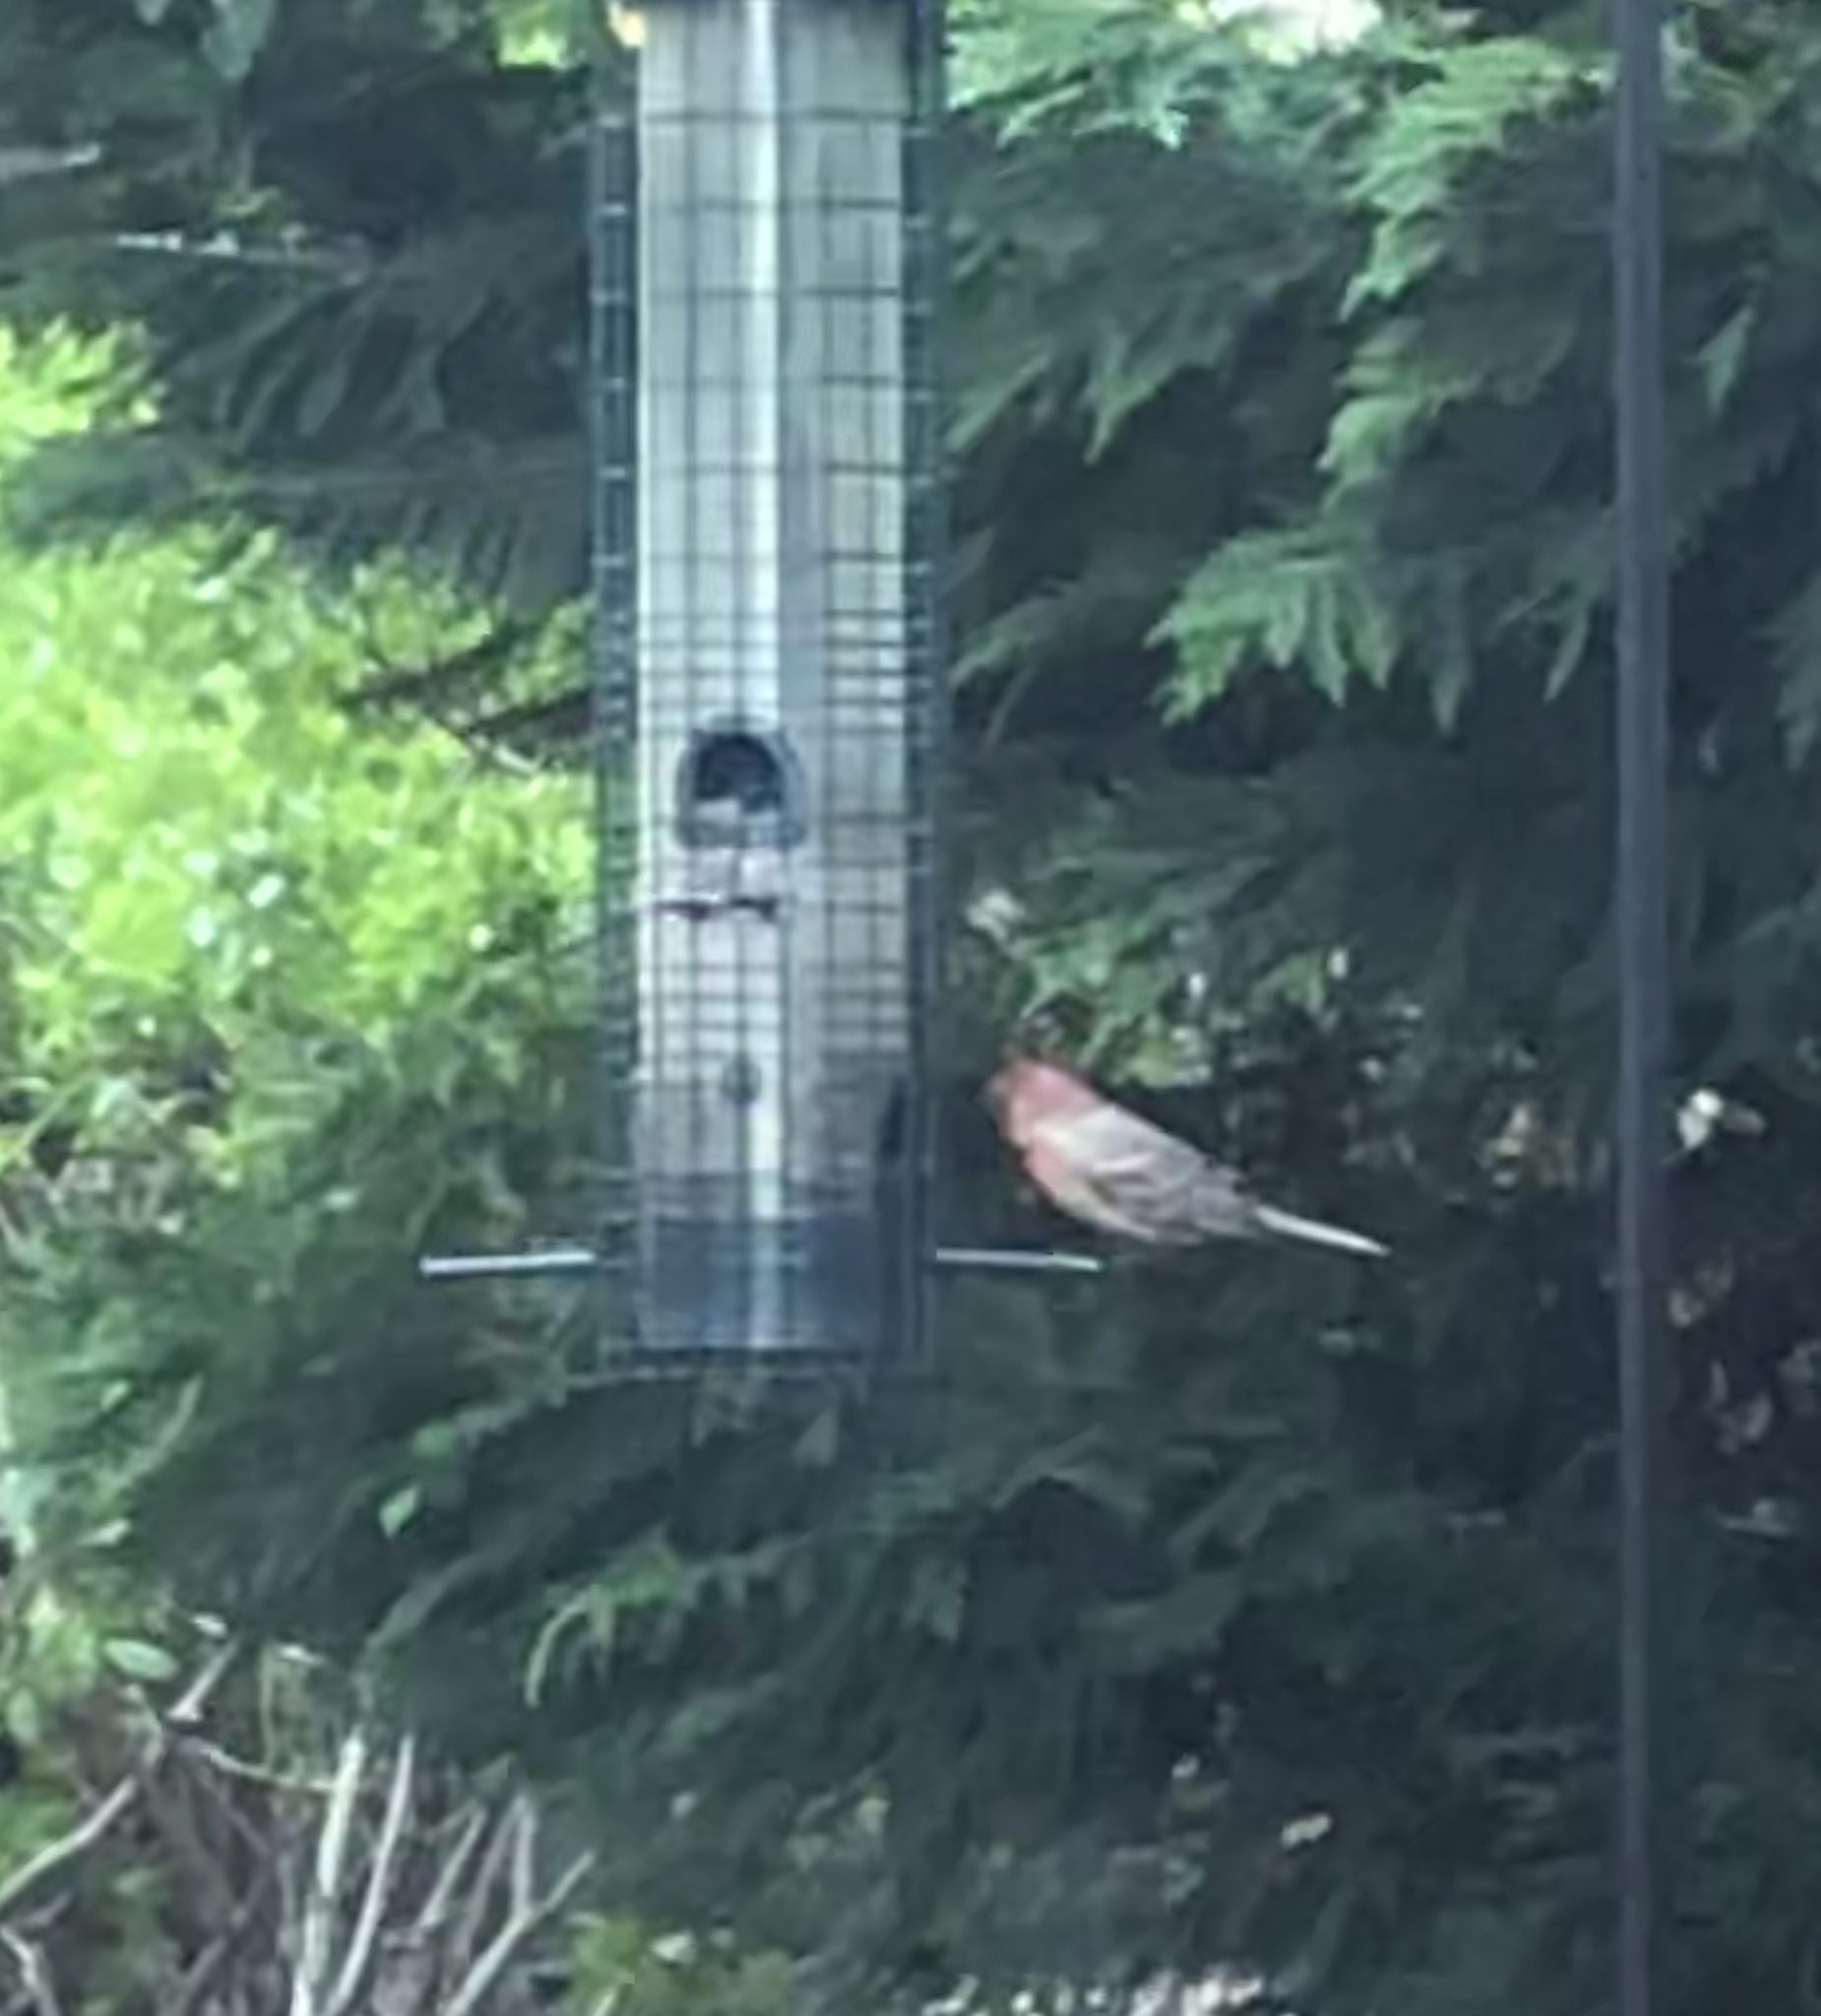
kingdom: Animalia
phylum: Chordata
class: Aves
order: Passeriformes
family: Fringillidae
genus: Haemorhous
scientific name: Haemorhous mexicanus
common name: House finch
